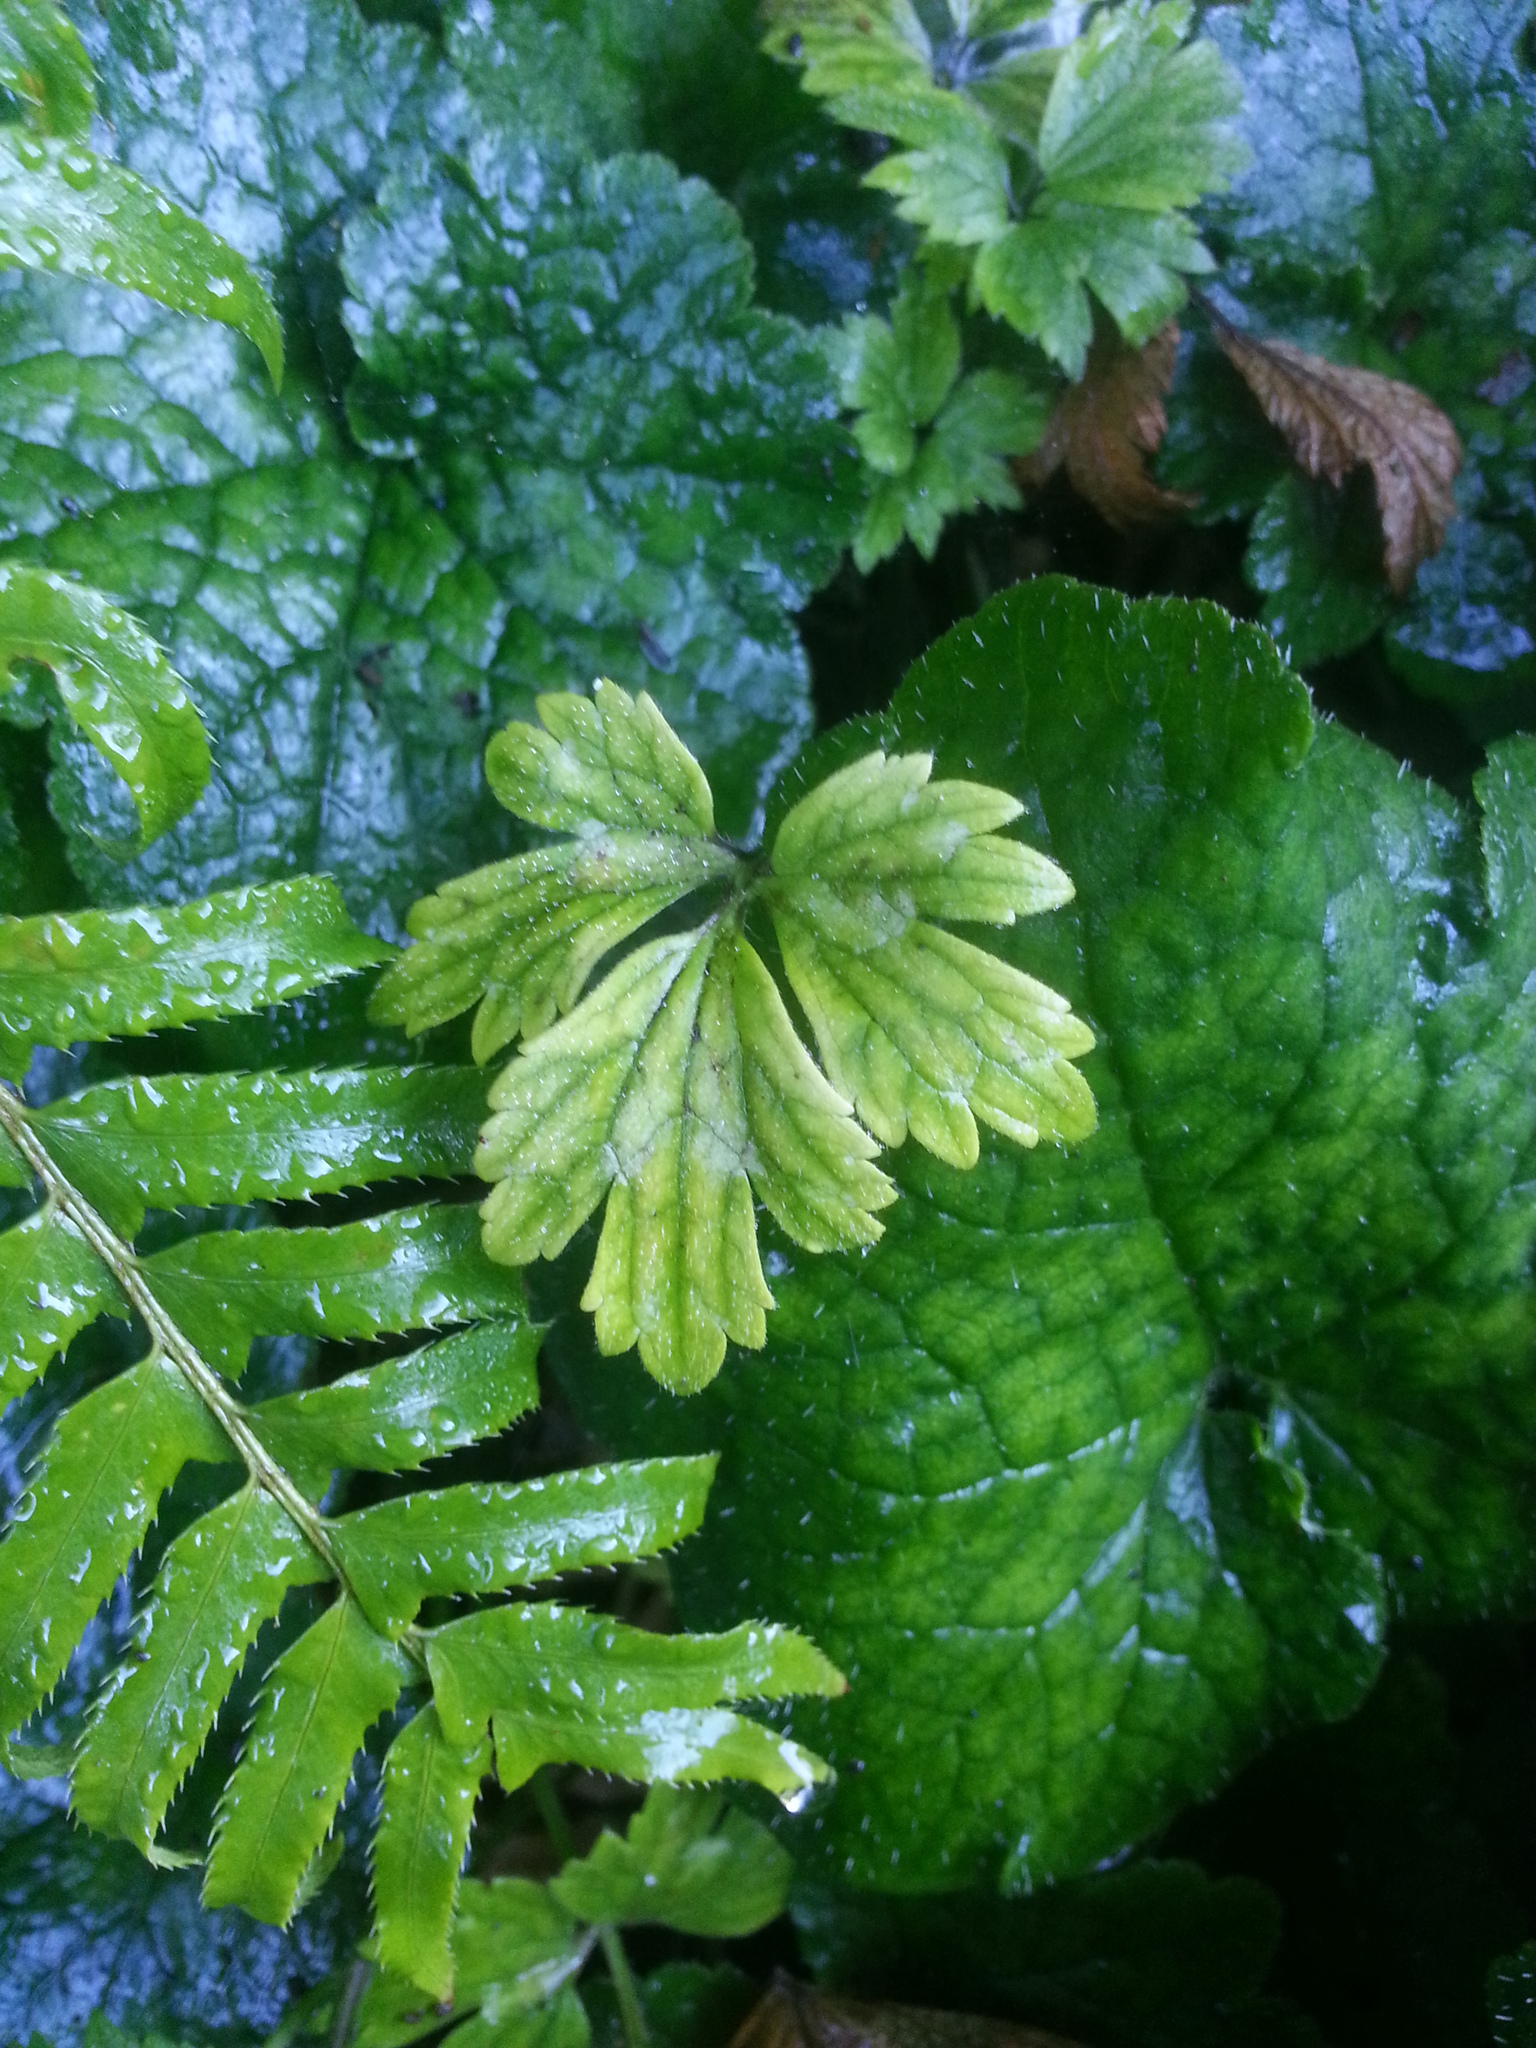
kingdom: Plantae
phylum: Tracheophyta
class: Magnoliopsida
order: Ranunculales
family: Ranunculaceae
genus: Ranunculus
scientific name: Ranunculus repens
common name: Creeping buttercup
